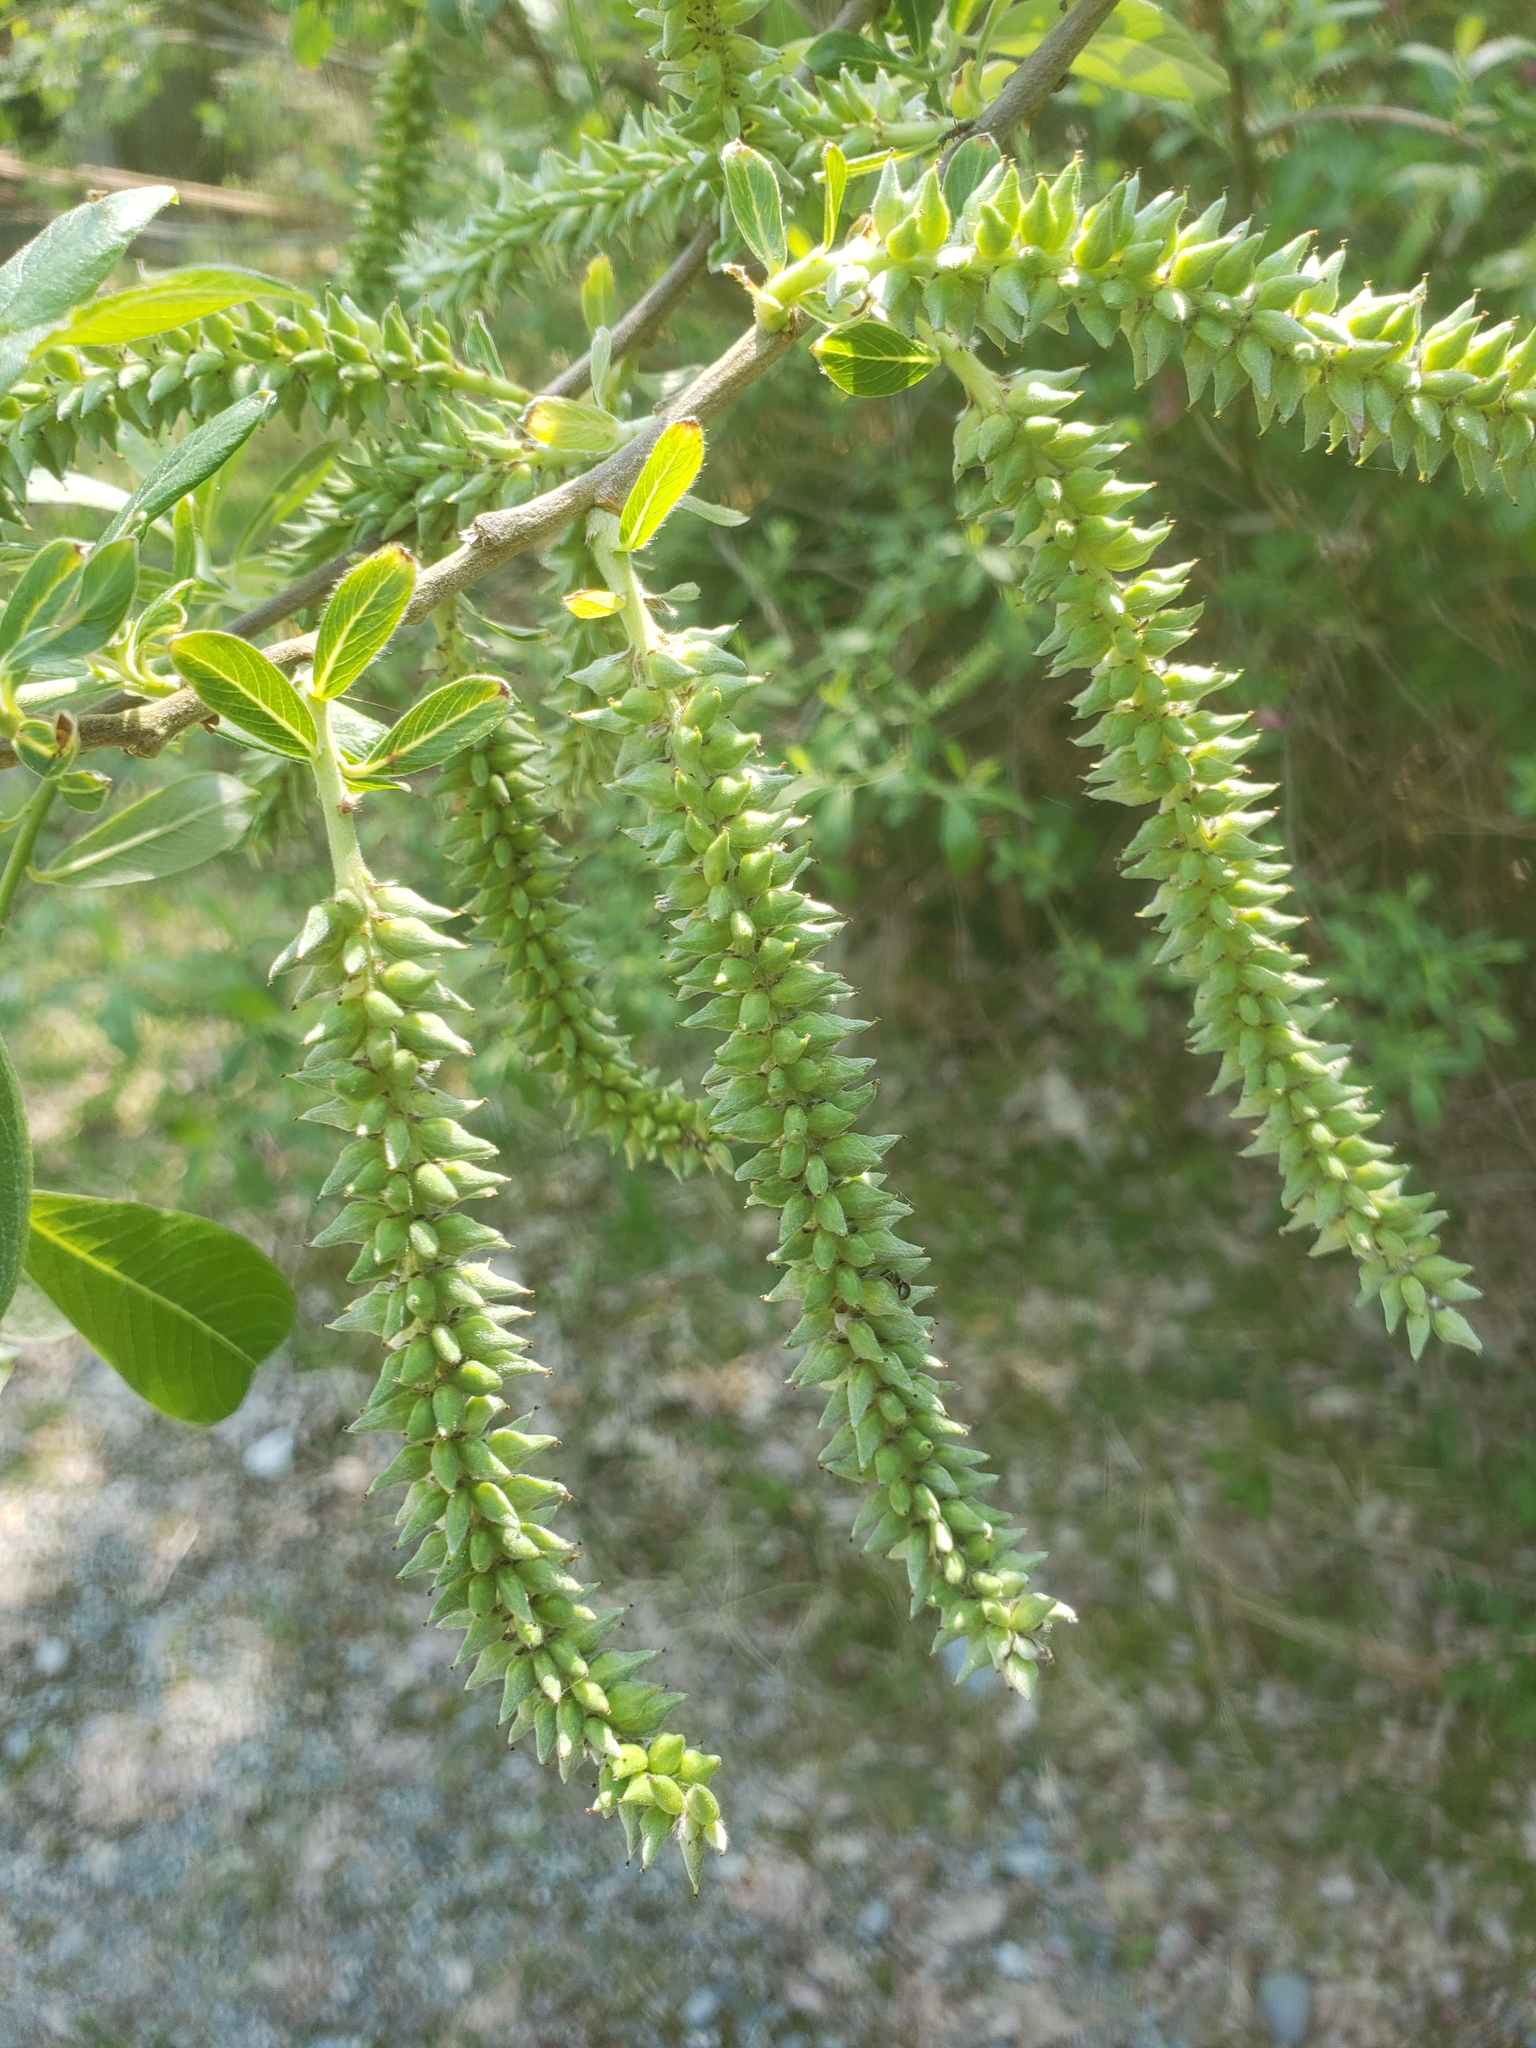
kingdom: Plantae
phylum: Tracheophyta
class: Magnoliopsida
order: Malpighiales
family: Salicaceae
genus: Salix
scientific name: Salix sitchensis
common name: Sitka willow
